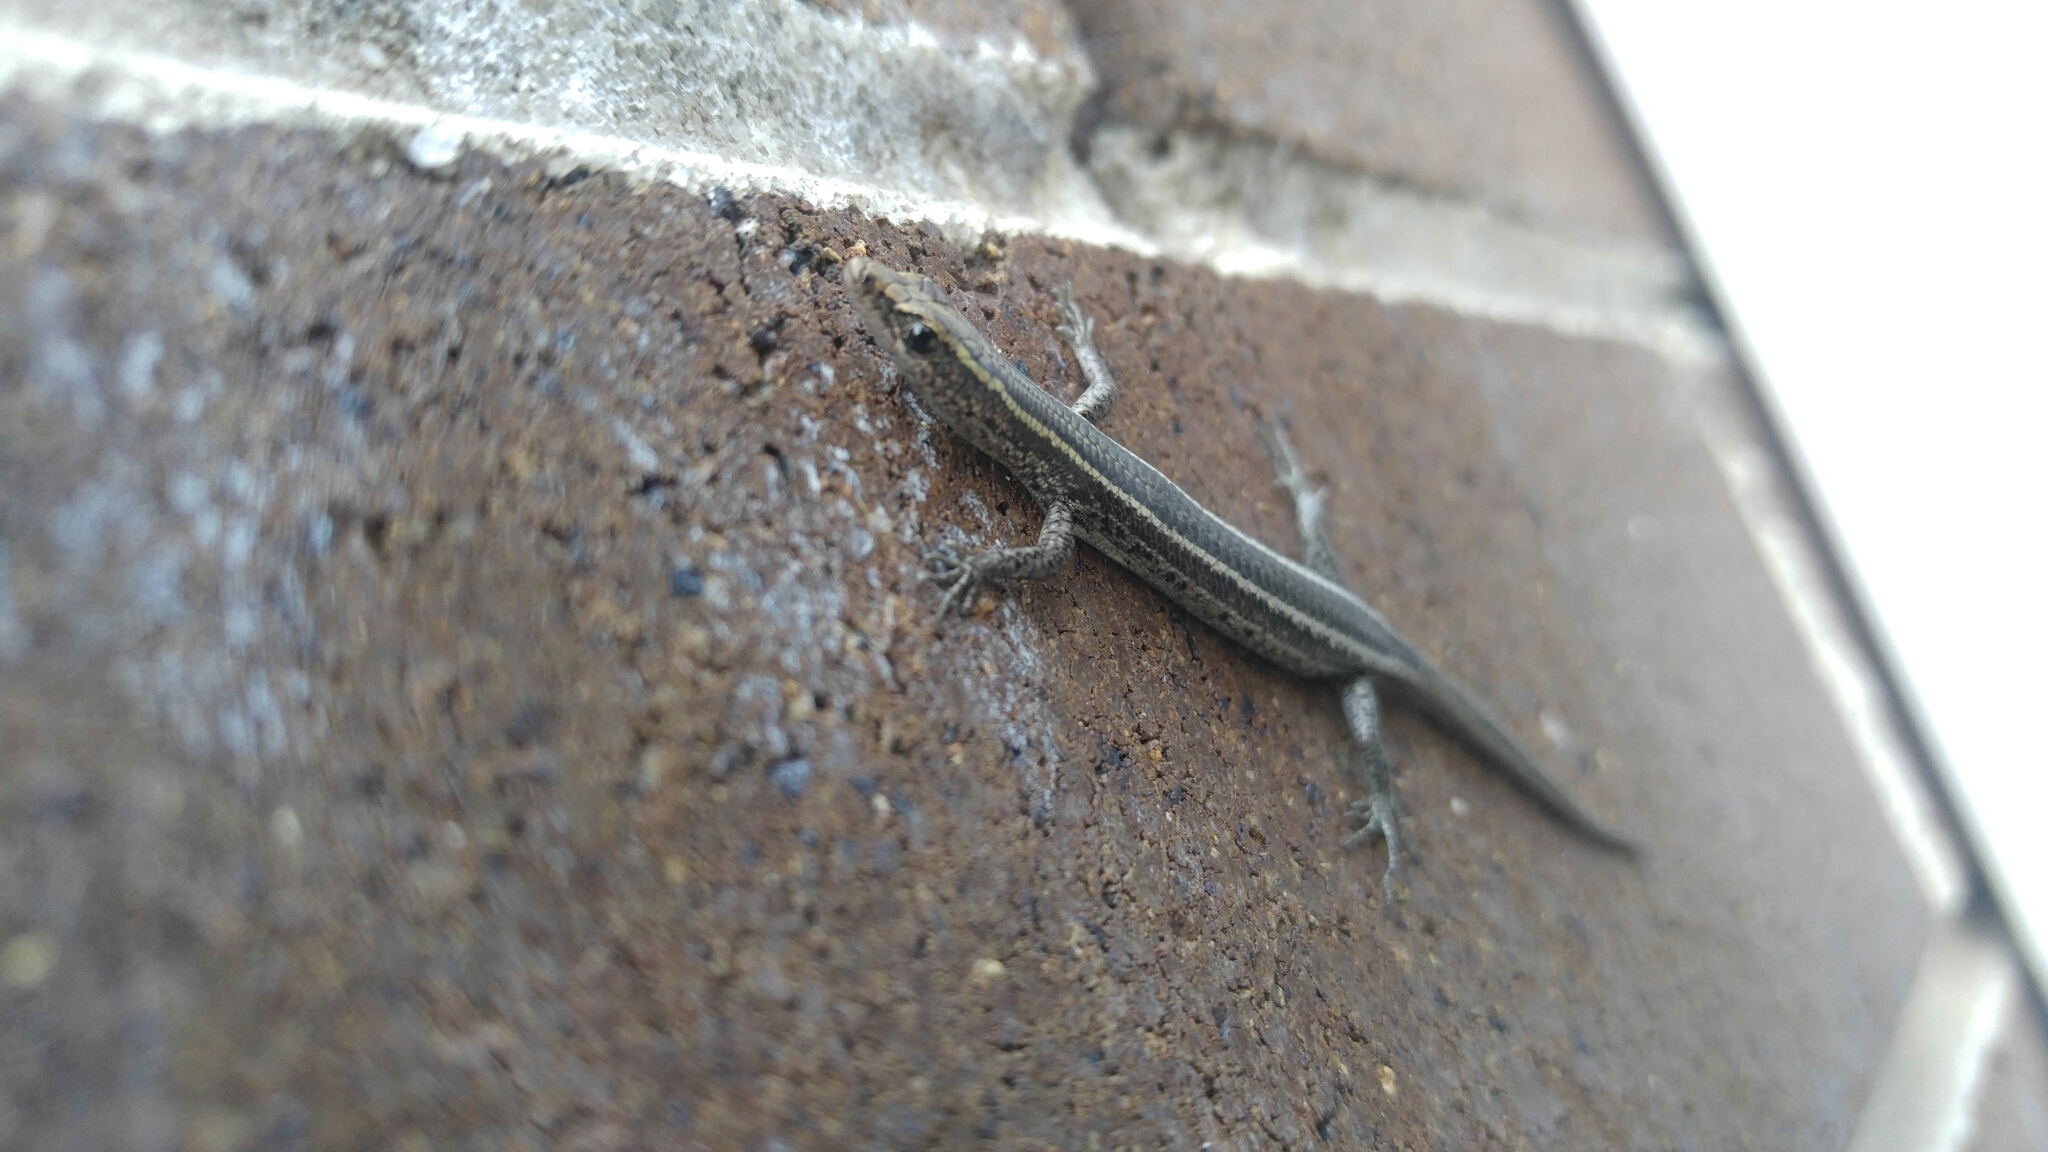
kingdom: Animalia
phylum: Chordata
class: Squamata
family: Scincidae
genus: Cryptoblepharus
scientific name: Cryptoblepharus pulcher
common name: Elegant snake-eyed skink
